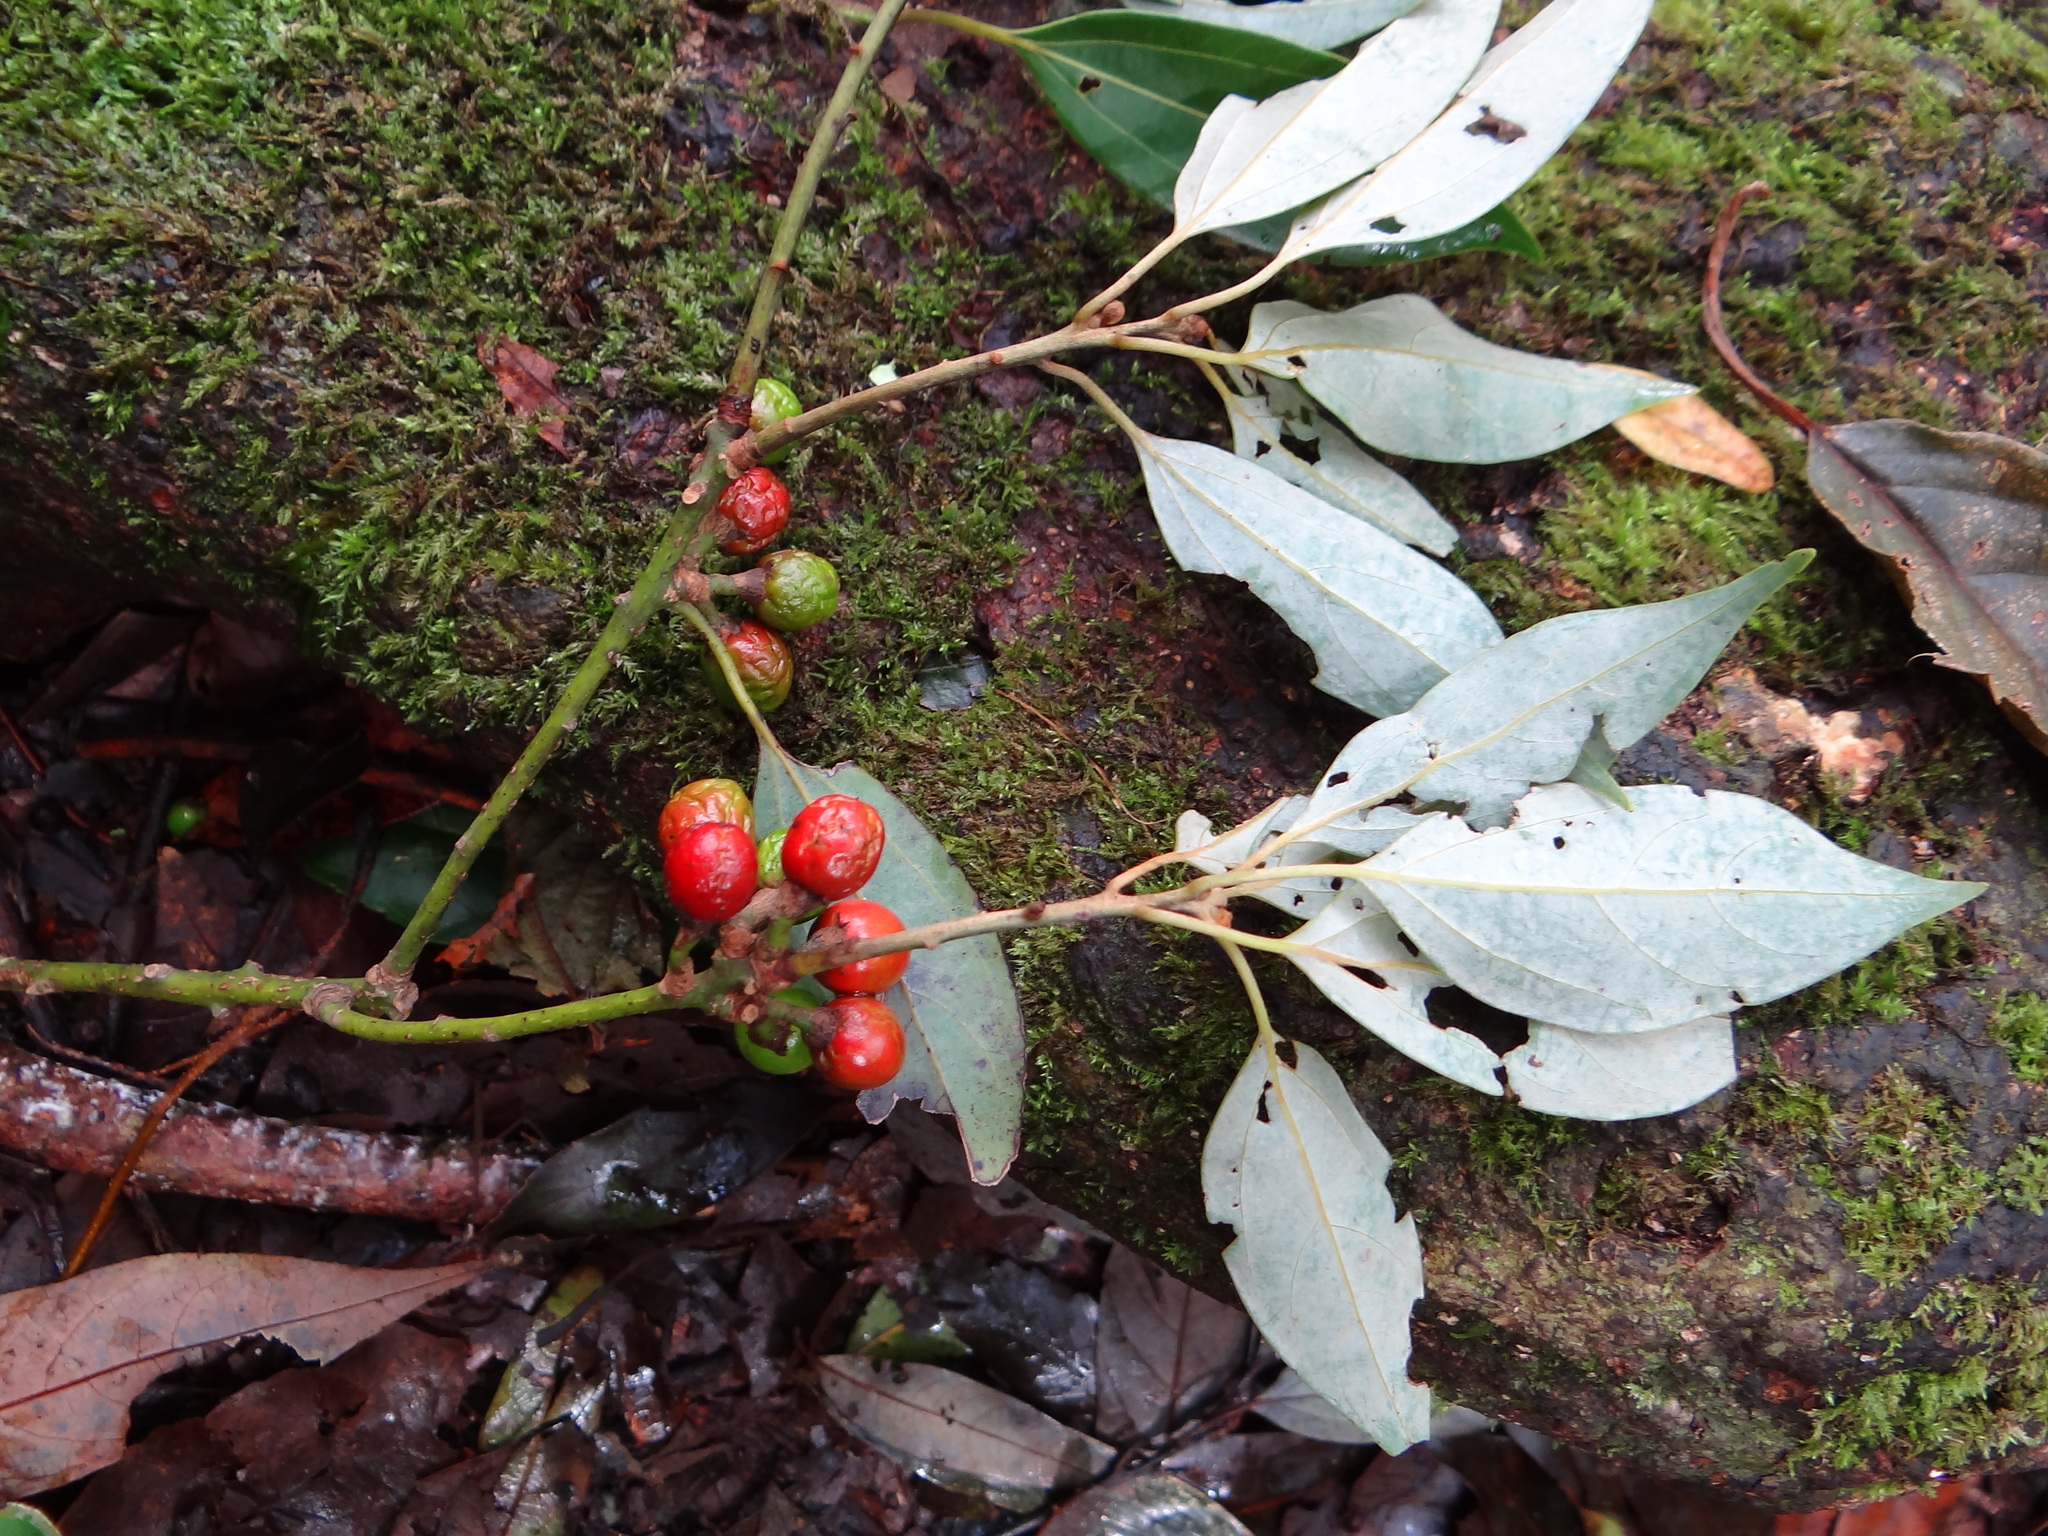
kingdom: Plantae
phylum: Tracheophyta
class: Magnoliopsida
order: Laurales
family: Lauraceae
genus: Neolitsea
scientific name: Neolitsea sericea
